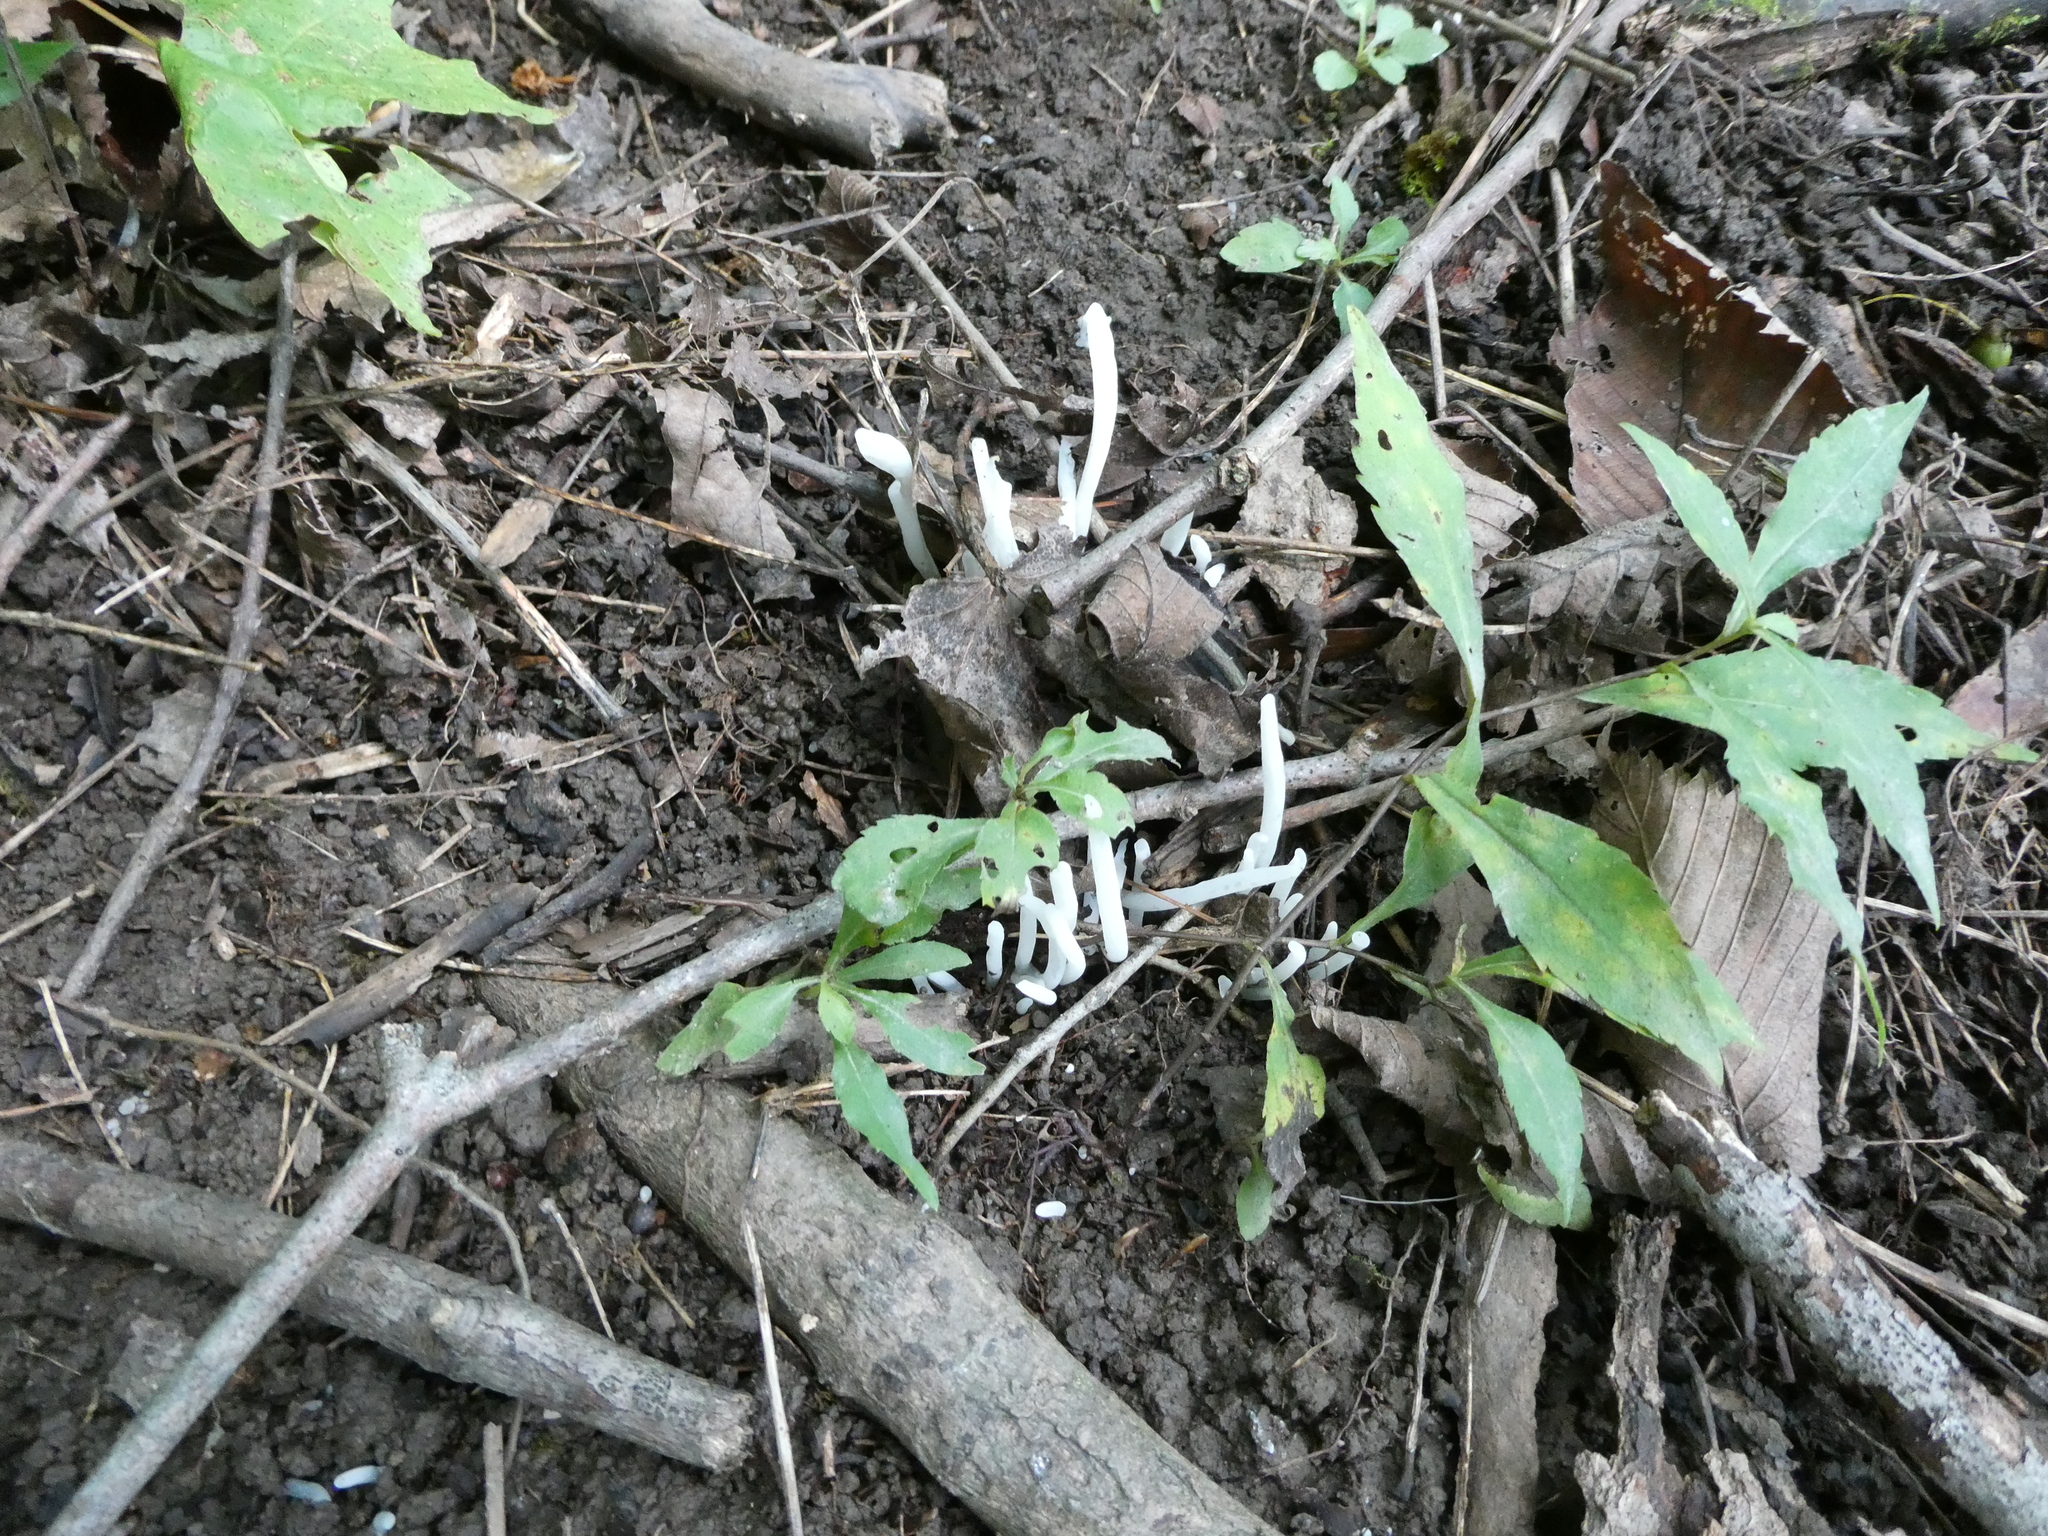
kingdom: Fungi
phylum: Basidiomycota
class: Agaricomycetes
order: Agaricales
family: Clavariaceae
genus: Clavaria
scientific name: Clavaria fragilis
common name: White spindles
